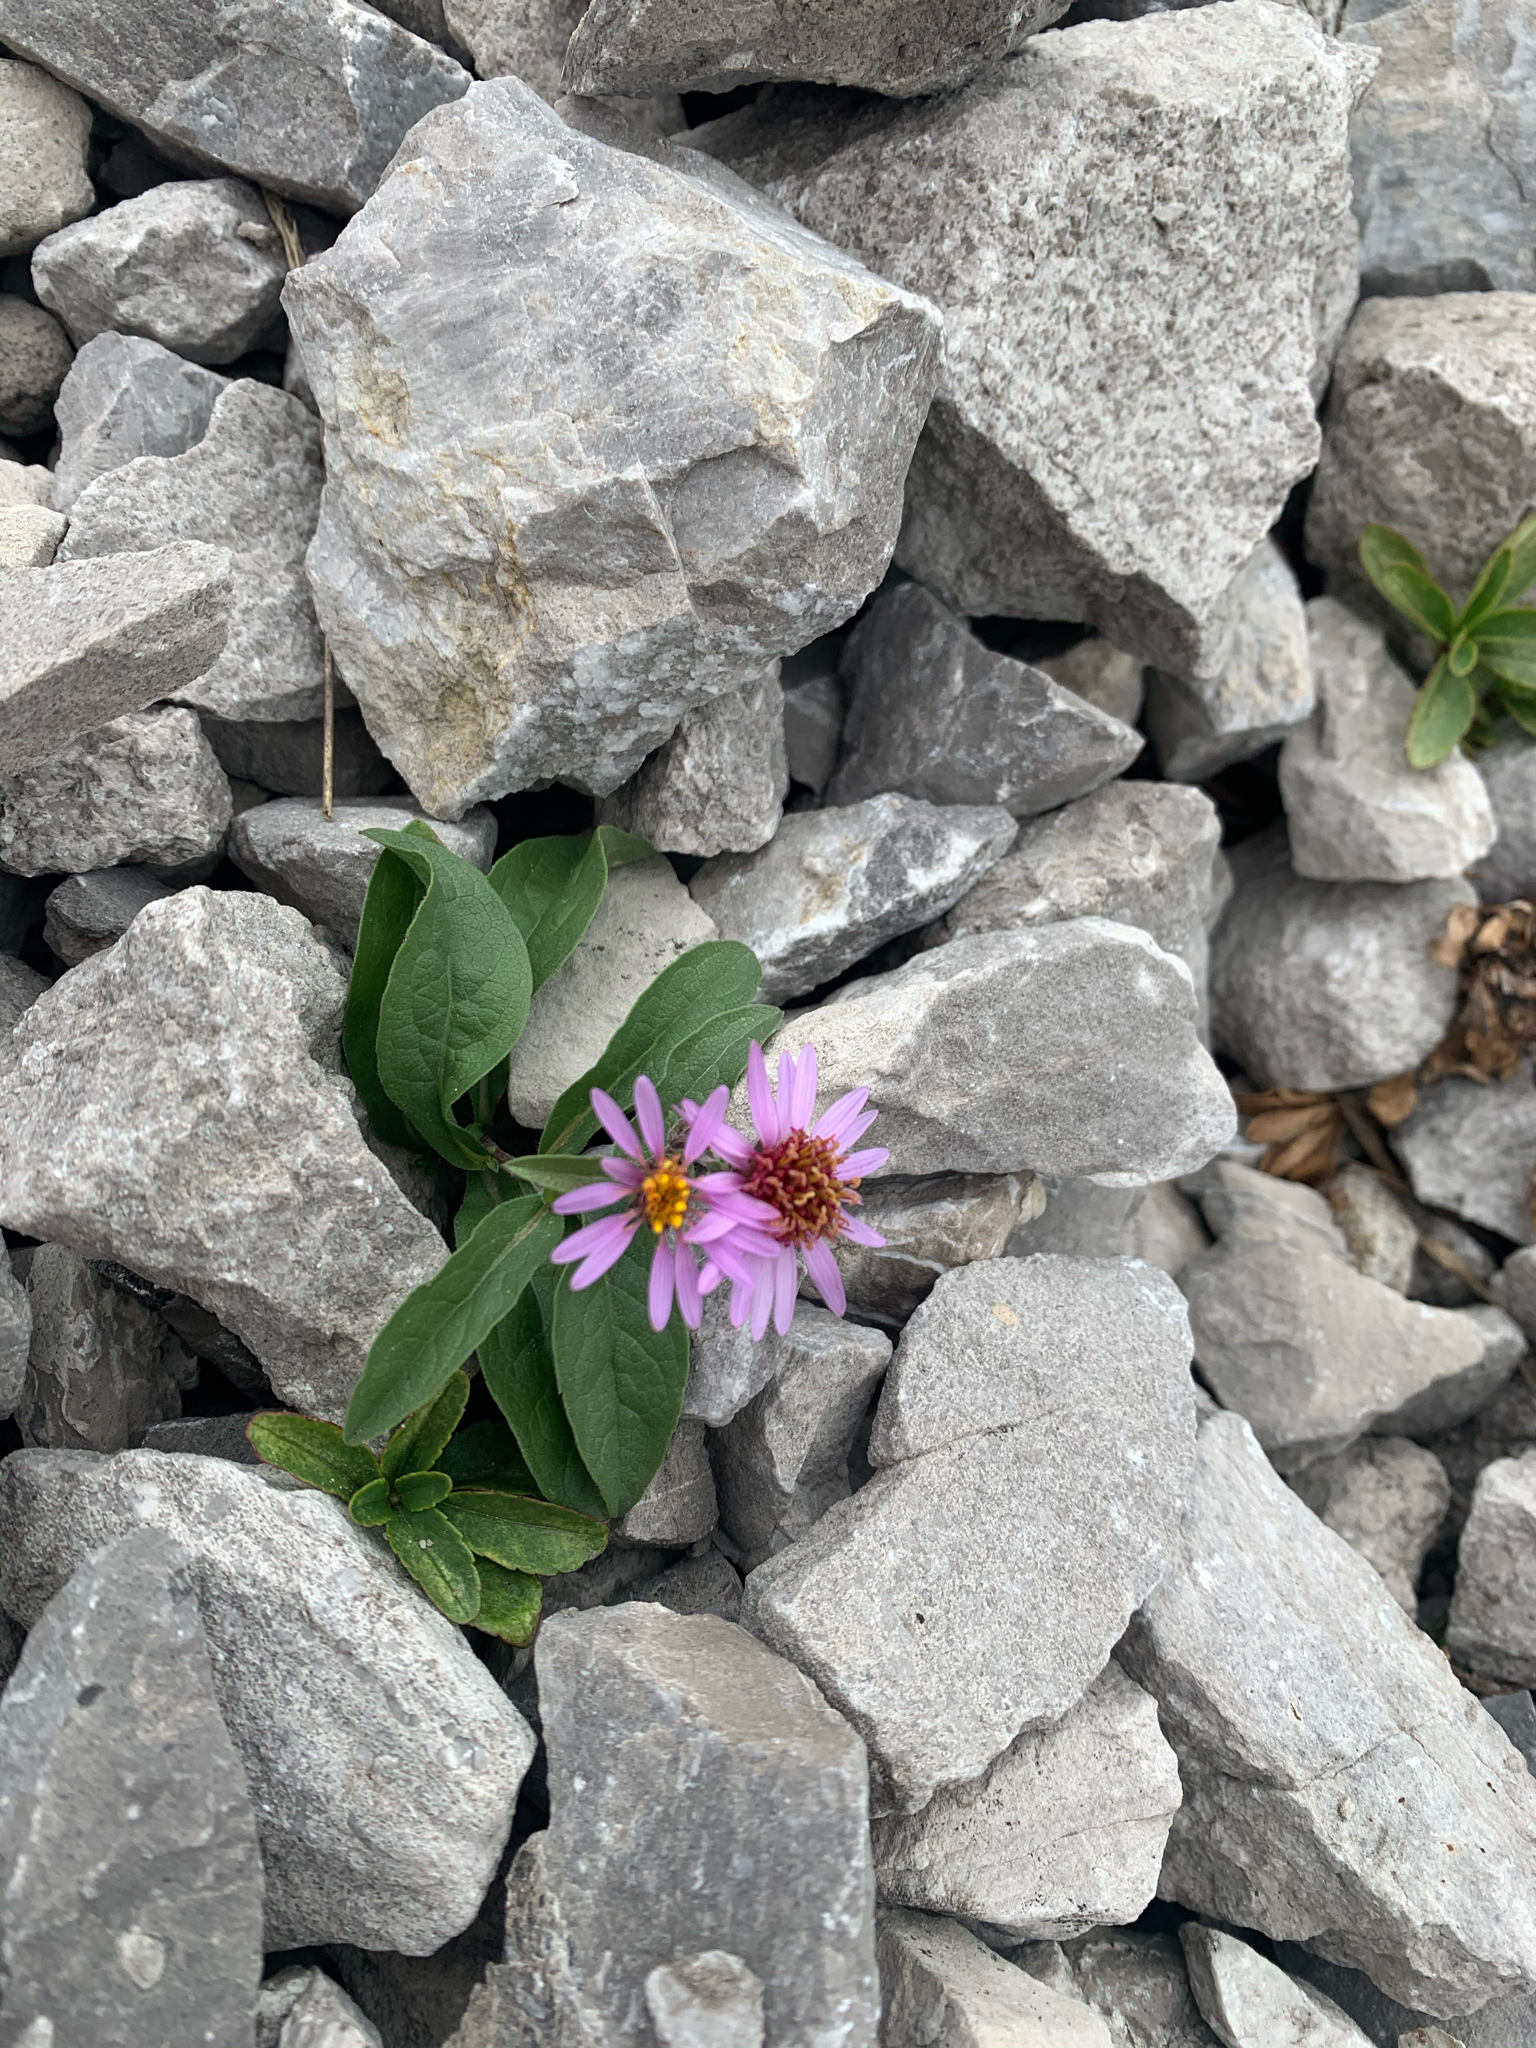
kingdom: Plantae
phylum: Tracheophyta
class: Magnoliopsida
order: Asterales
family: Asteraceae
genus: Eurybia
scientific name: Eurybia sibirica
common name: Arctic aster
